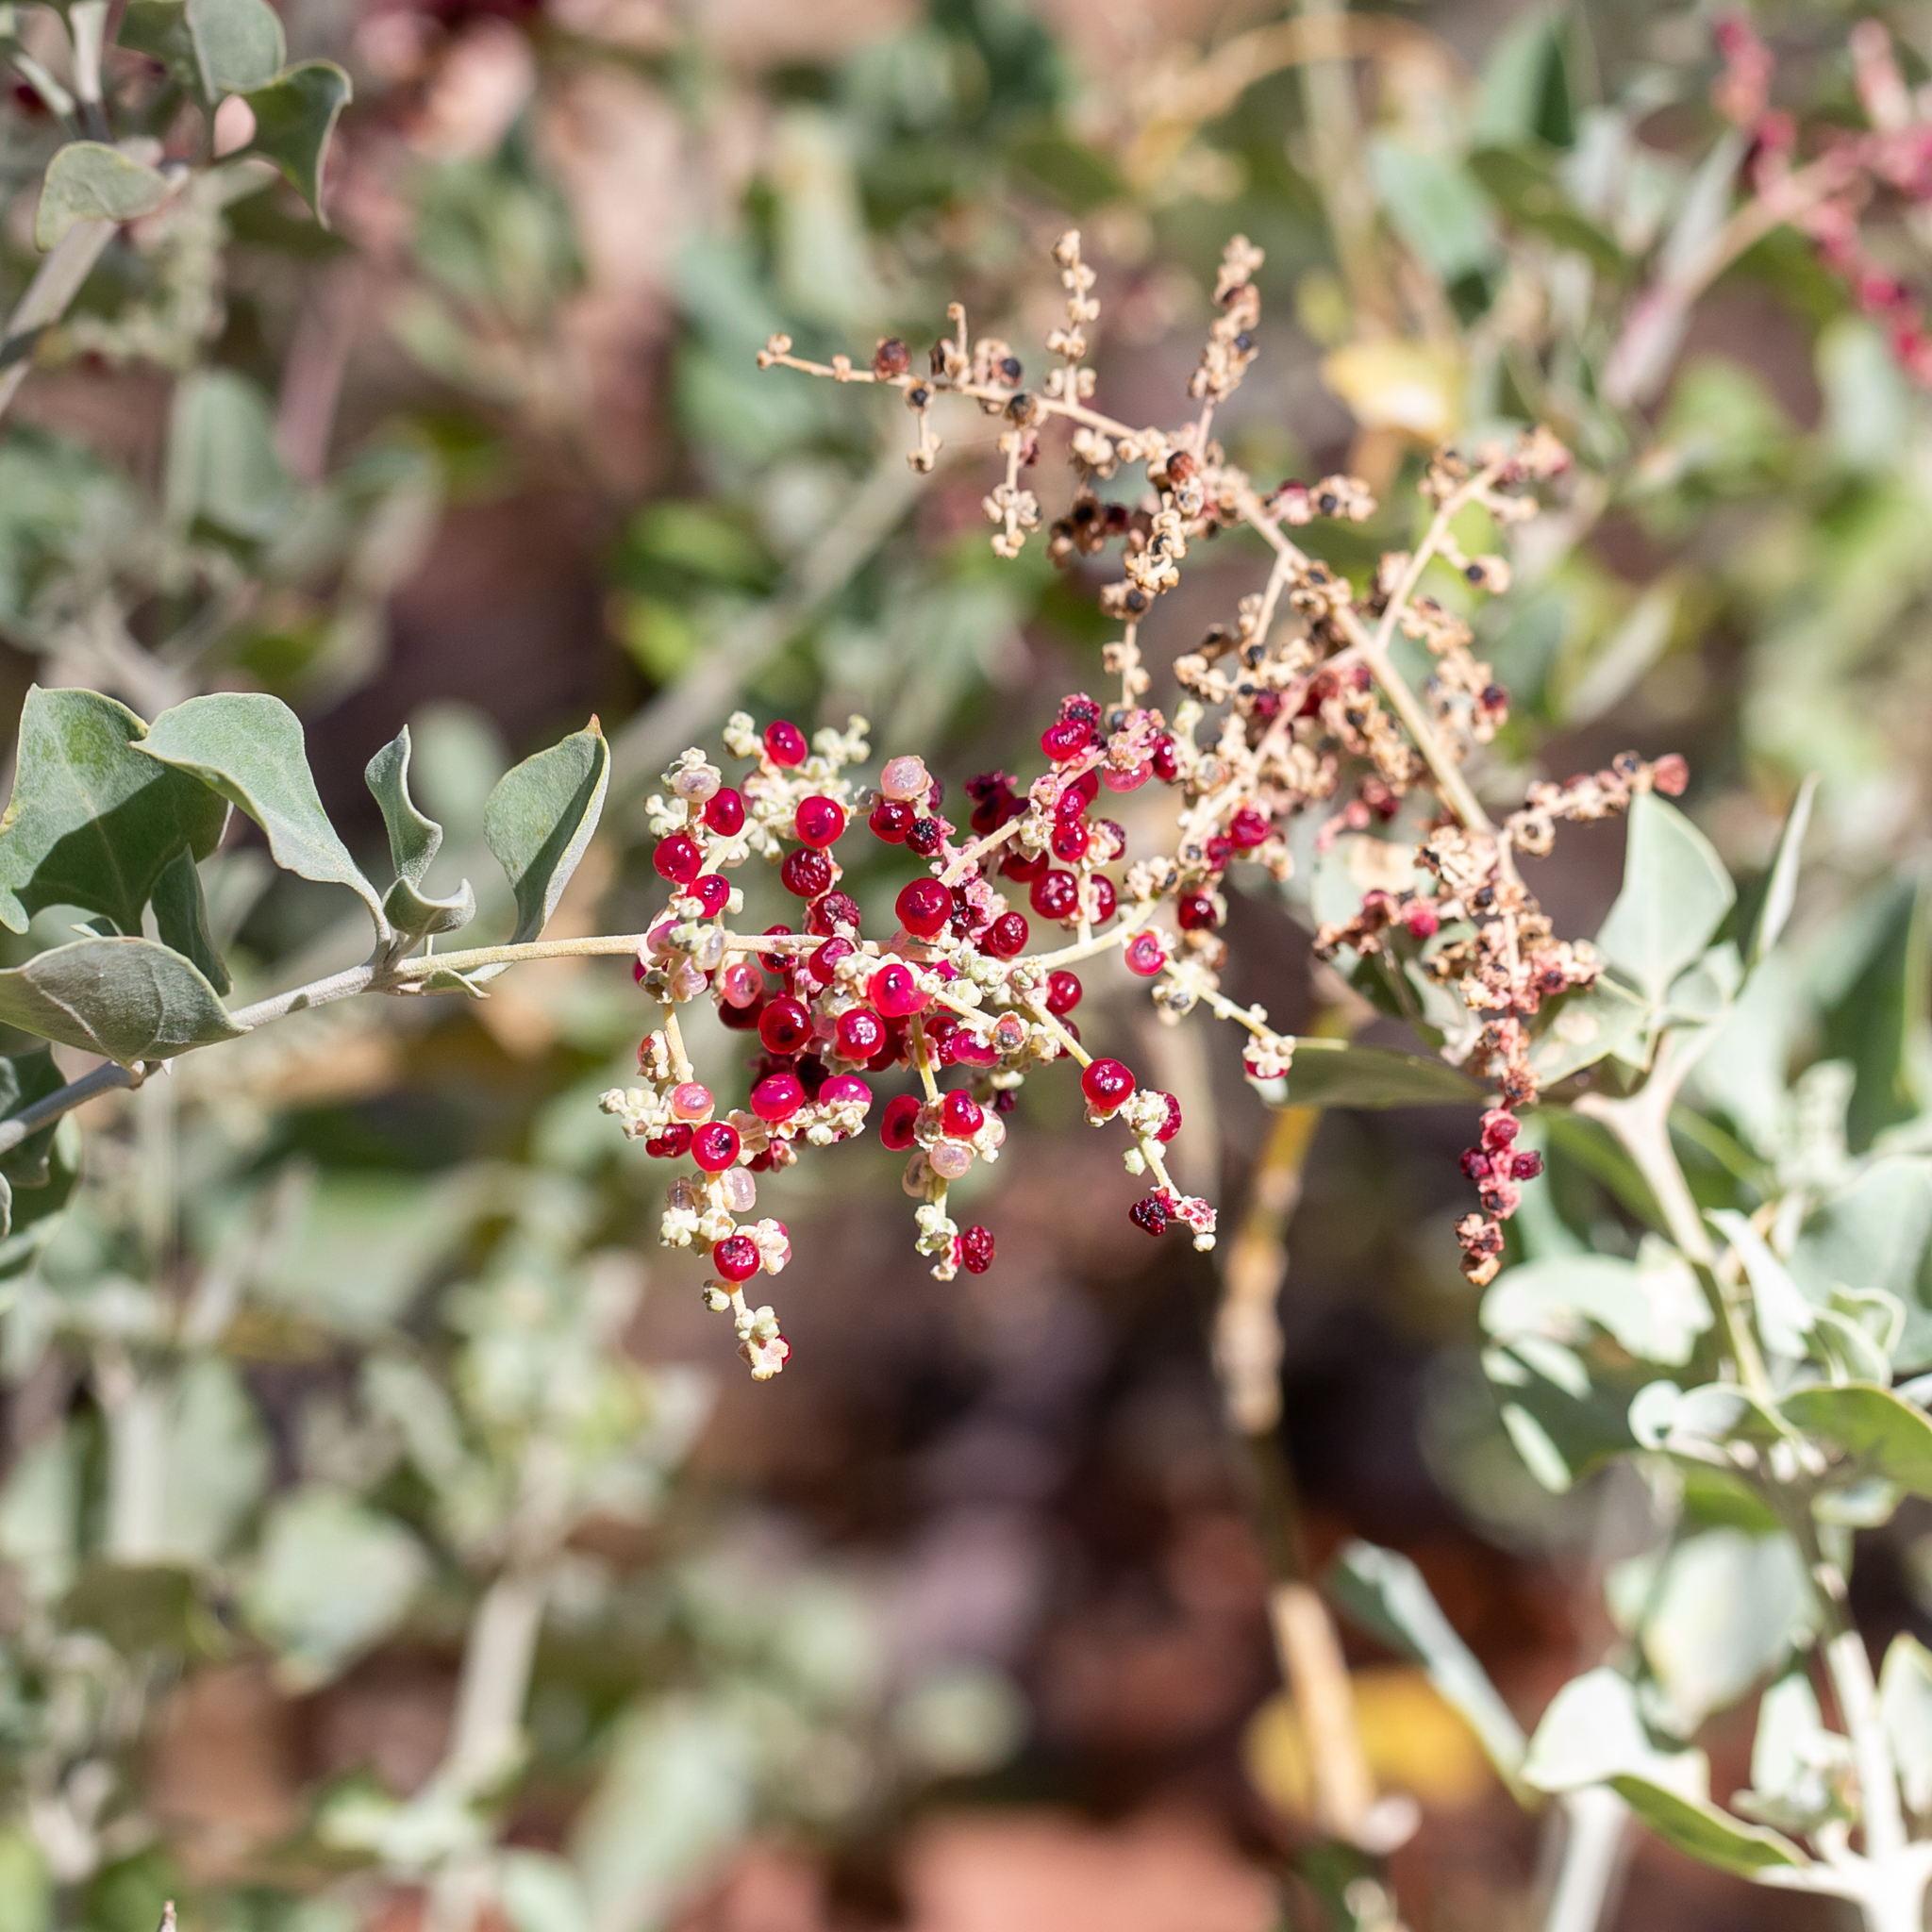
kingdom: Plantae
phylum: Tracheophyta
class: Magnoliopsida
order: Caryophyllales
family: Amaranthaceae
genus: Chenopodium
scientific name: Chenopodium parabolicum
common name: Old-man-saltbush
